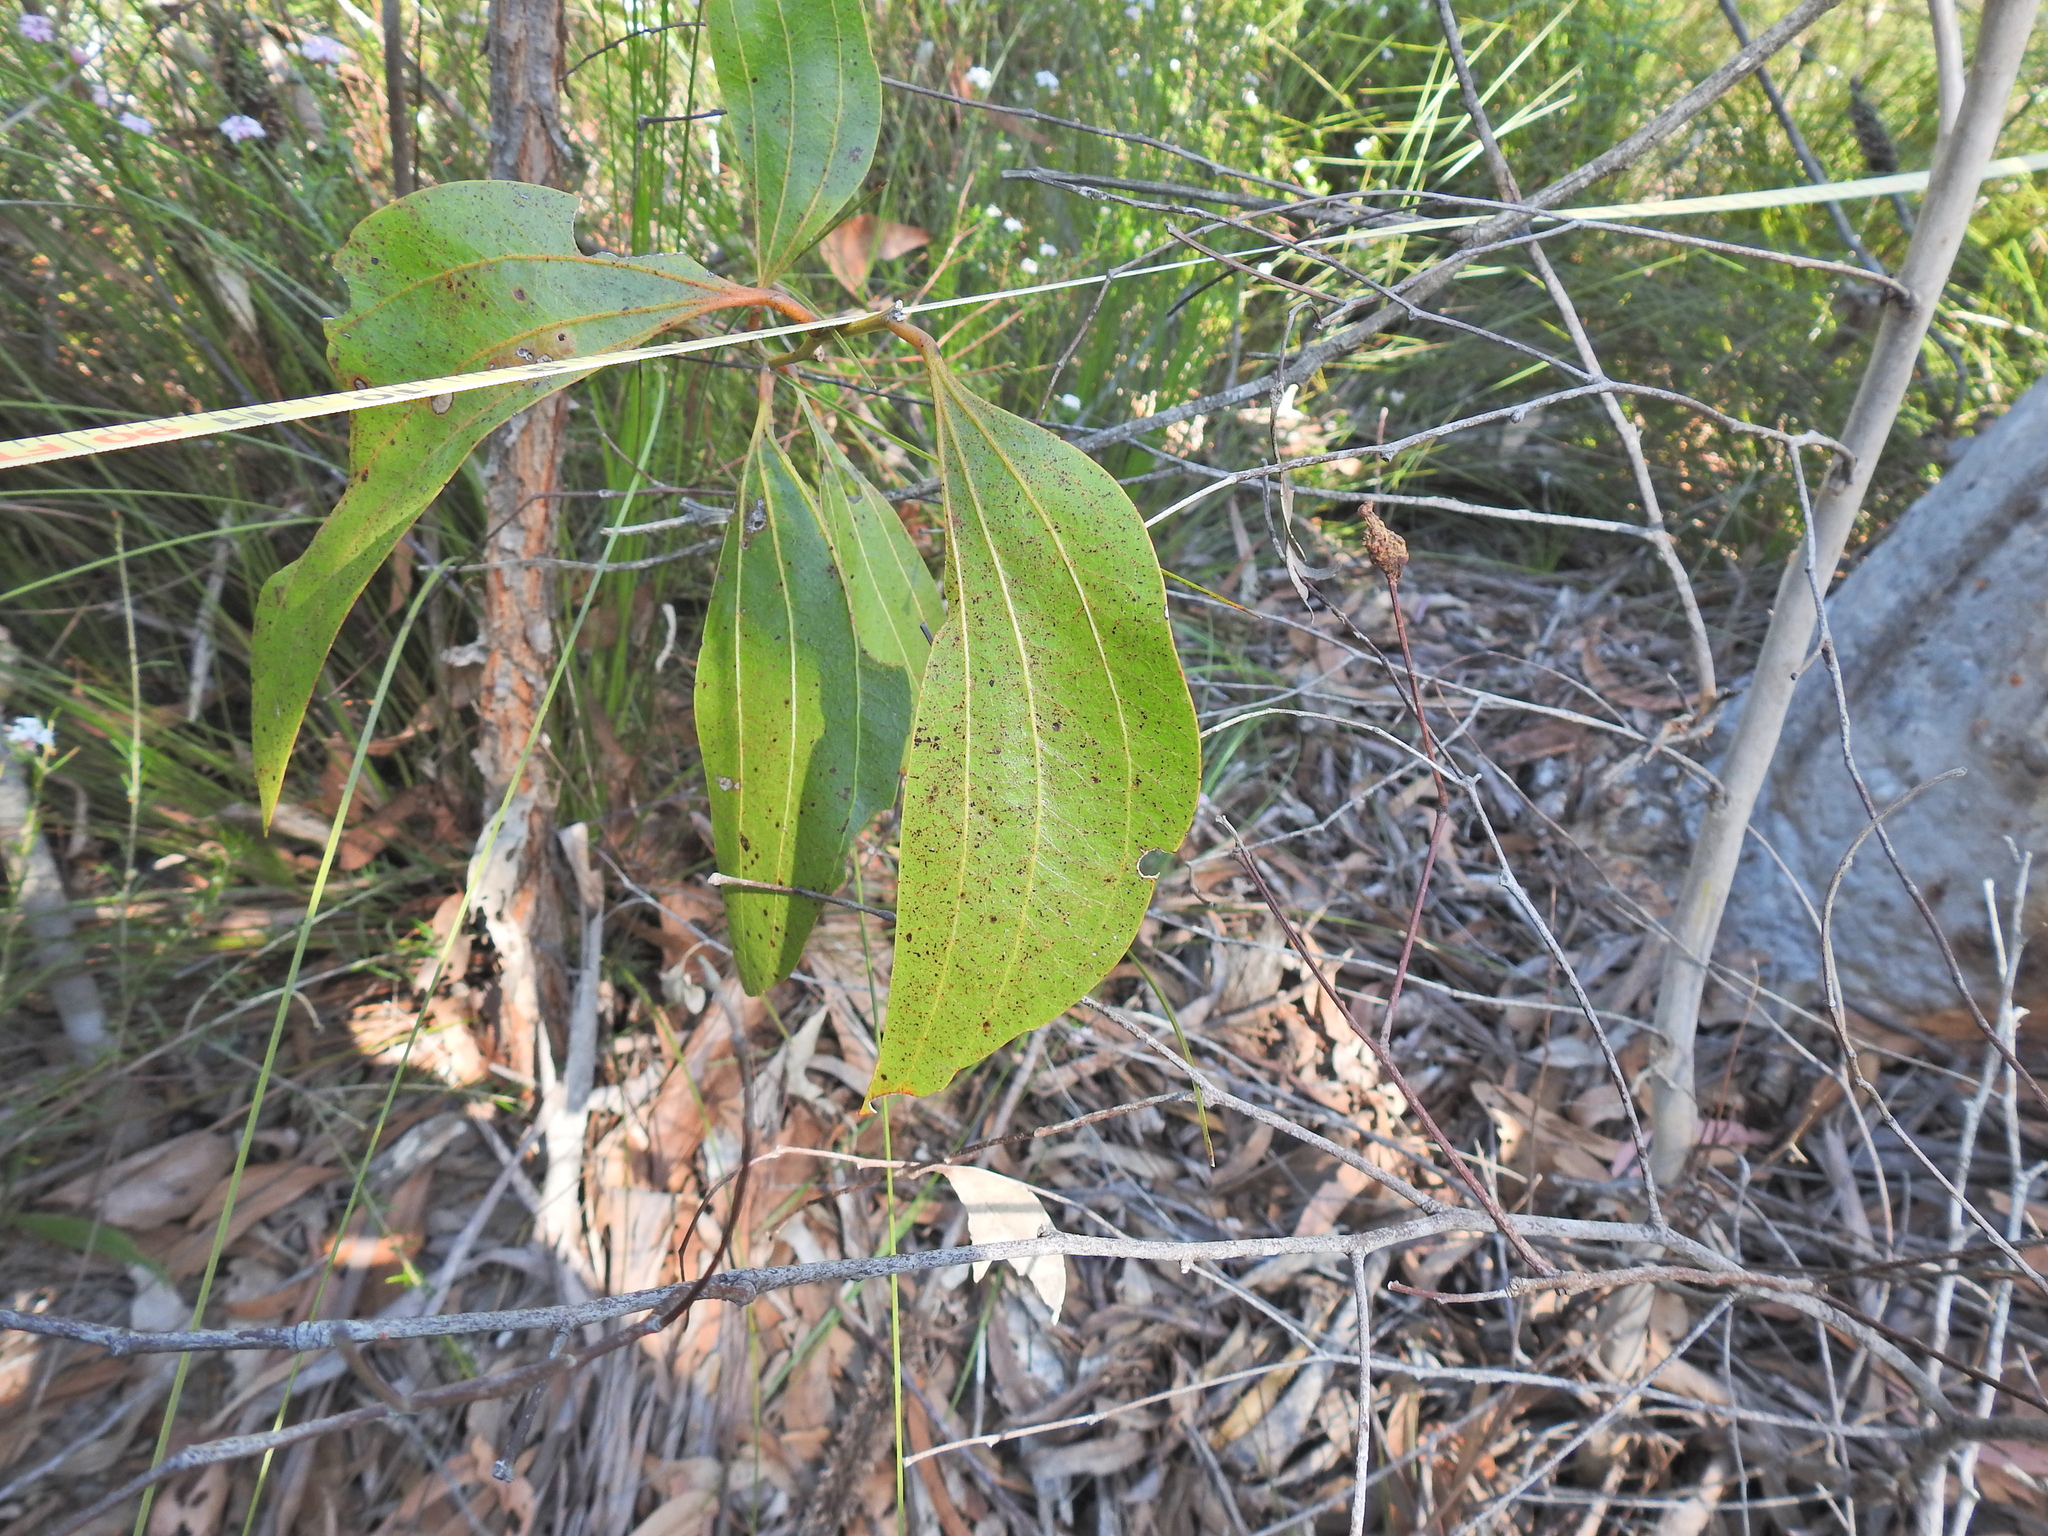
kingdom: Plantae
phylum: Tracheophyta
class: Magnoliopsida
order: Fabales
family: Fabaceae
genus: Acacia
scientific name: Acacia flavescens
